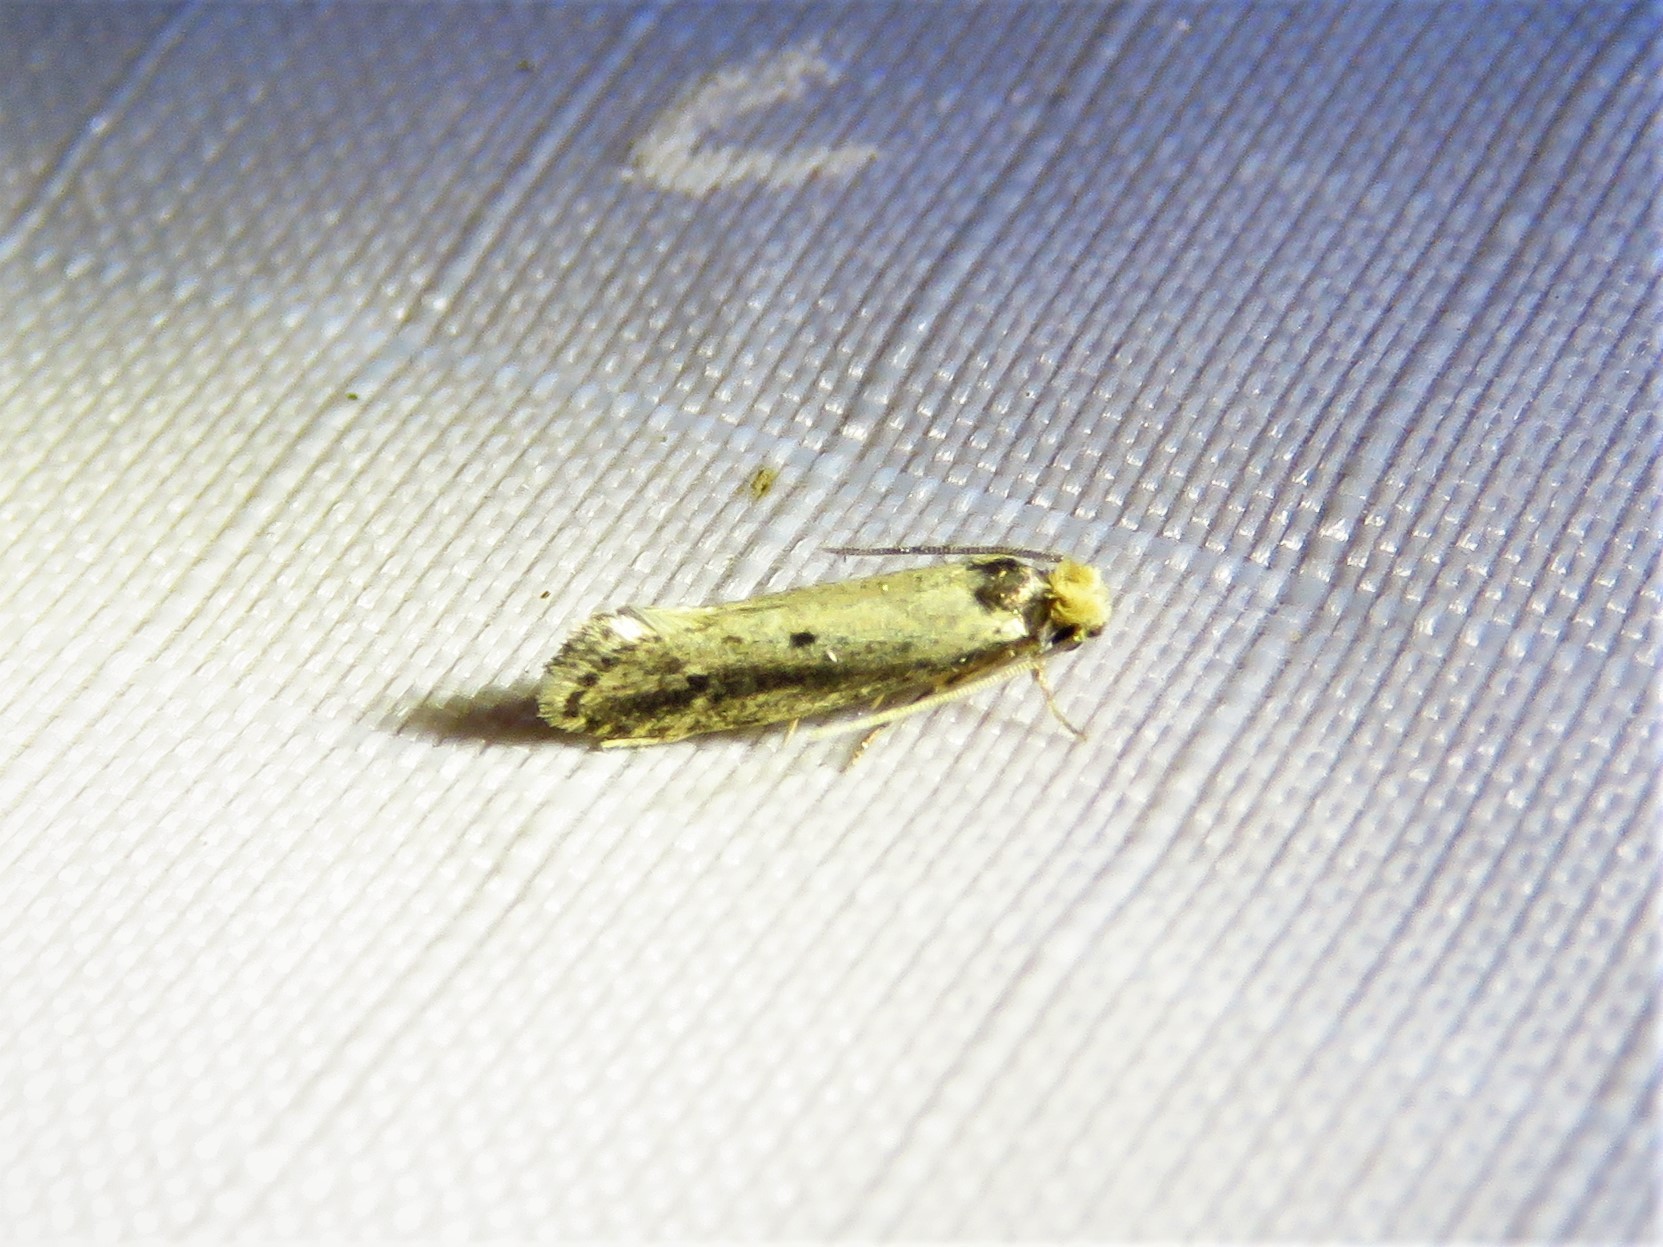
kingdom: Animalia
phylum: Arthropoda
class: Insecta
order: Lepidoptera
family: Tineidae
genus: Tinea
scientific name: Tinea apicimaculella
